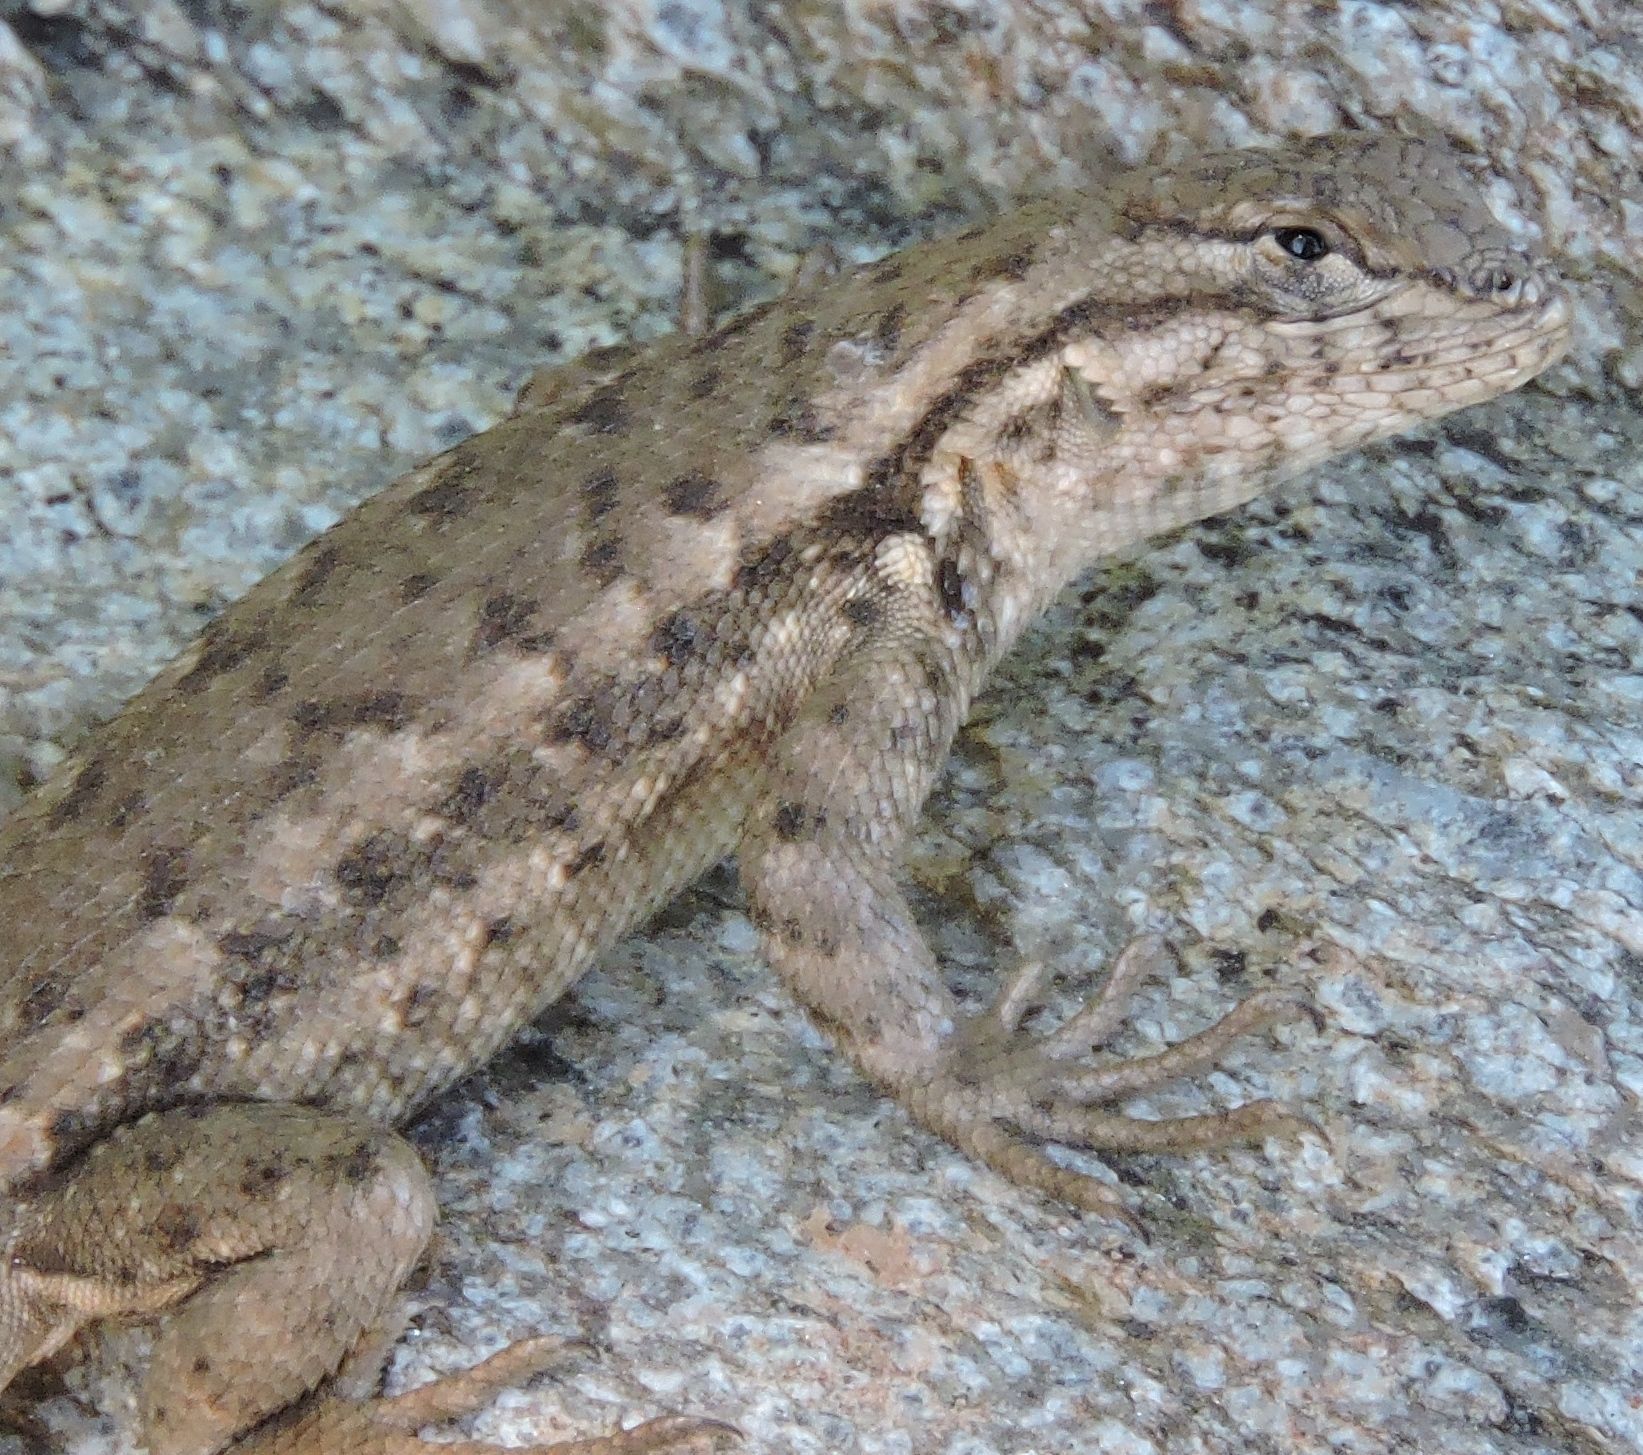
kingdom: Animalia
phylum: Chordata
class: Squamata
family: Phrynosomatidae
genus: Sceloporus
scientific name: Sceloporus occidentalis
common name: Western fence lizard
